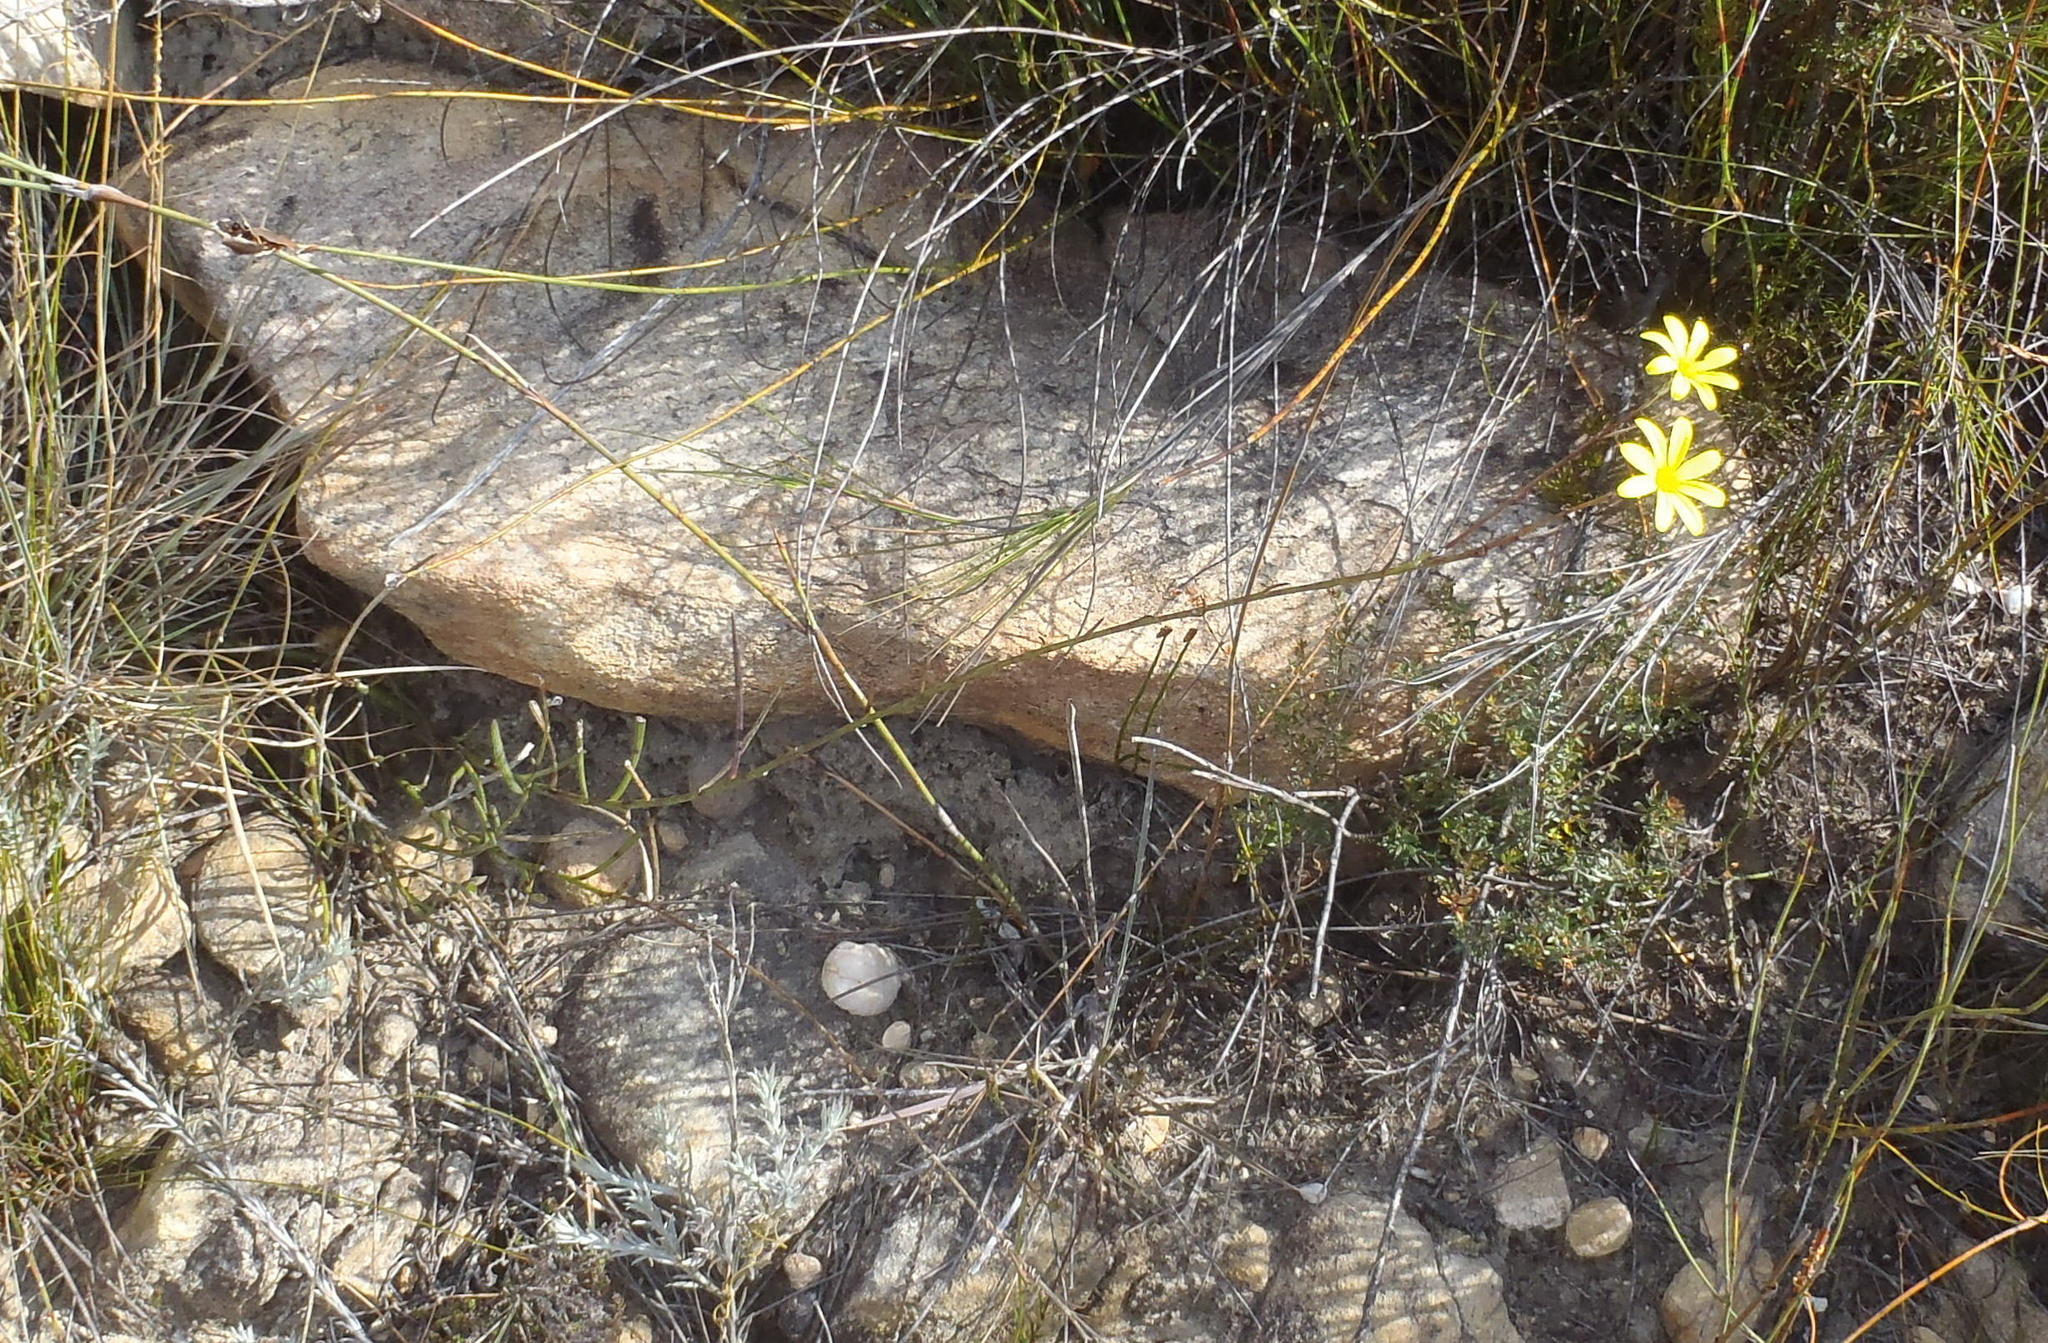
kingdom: Plantae
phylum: Tracheophyta
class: Magnoliopsida
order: Asterales
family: Asteraceae
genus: Osteospermum
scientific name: Osteospermum asperulum
